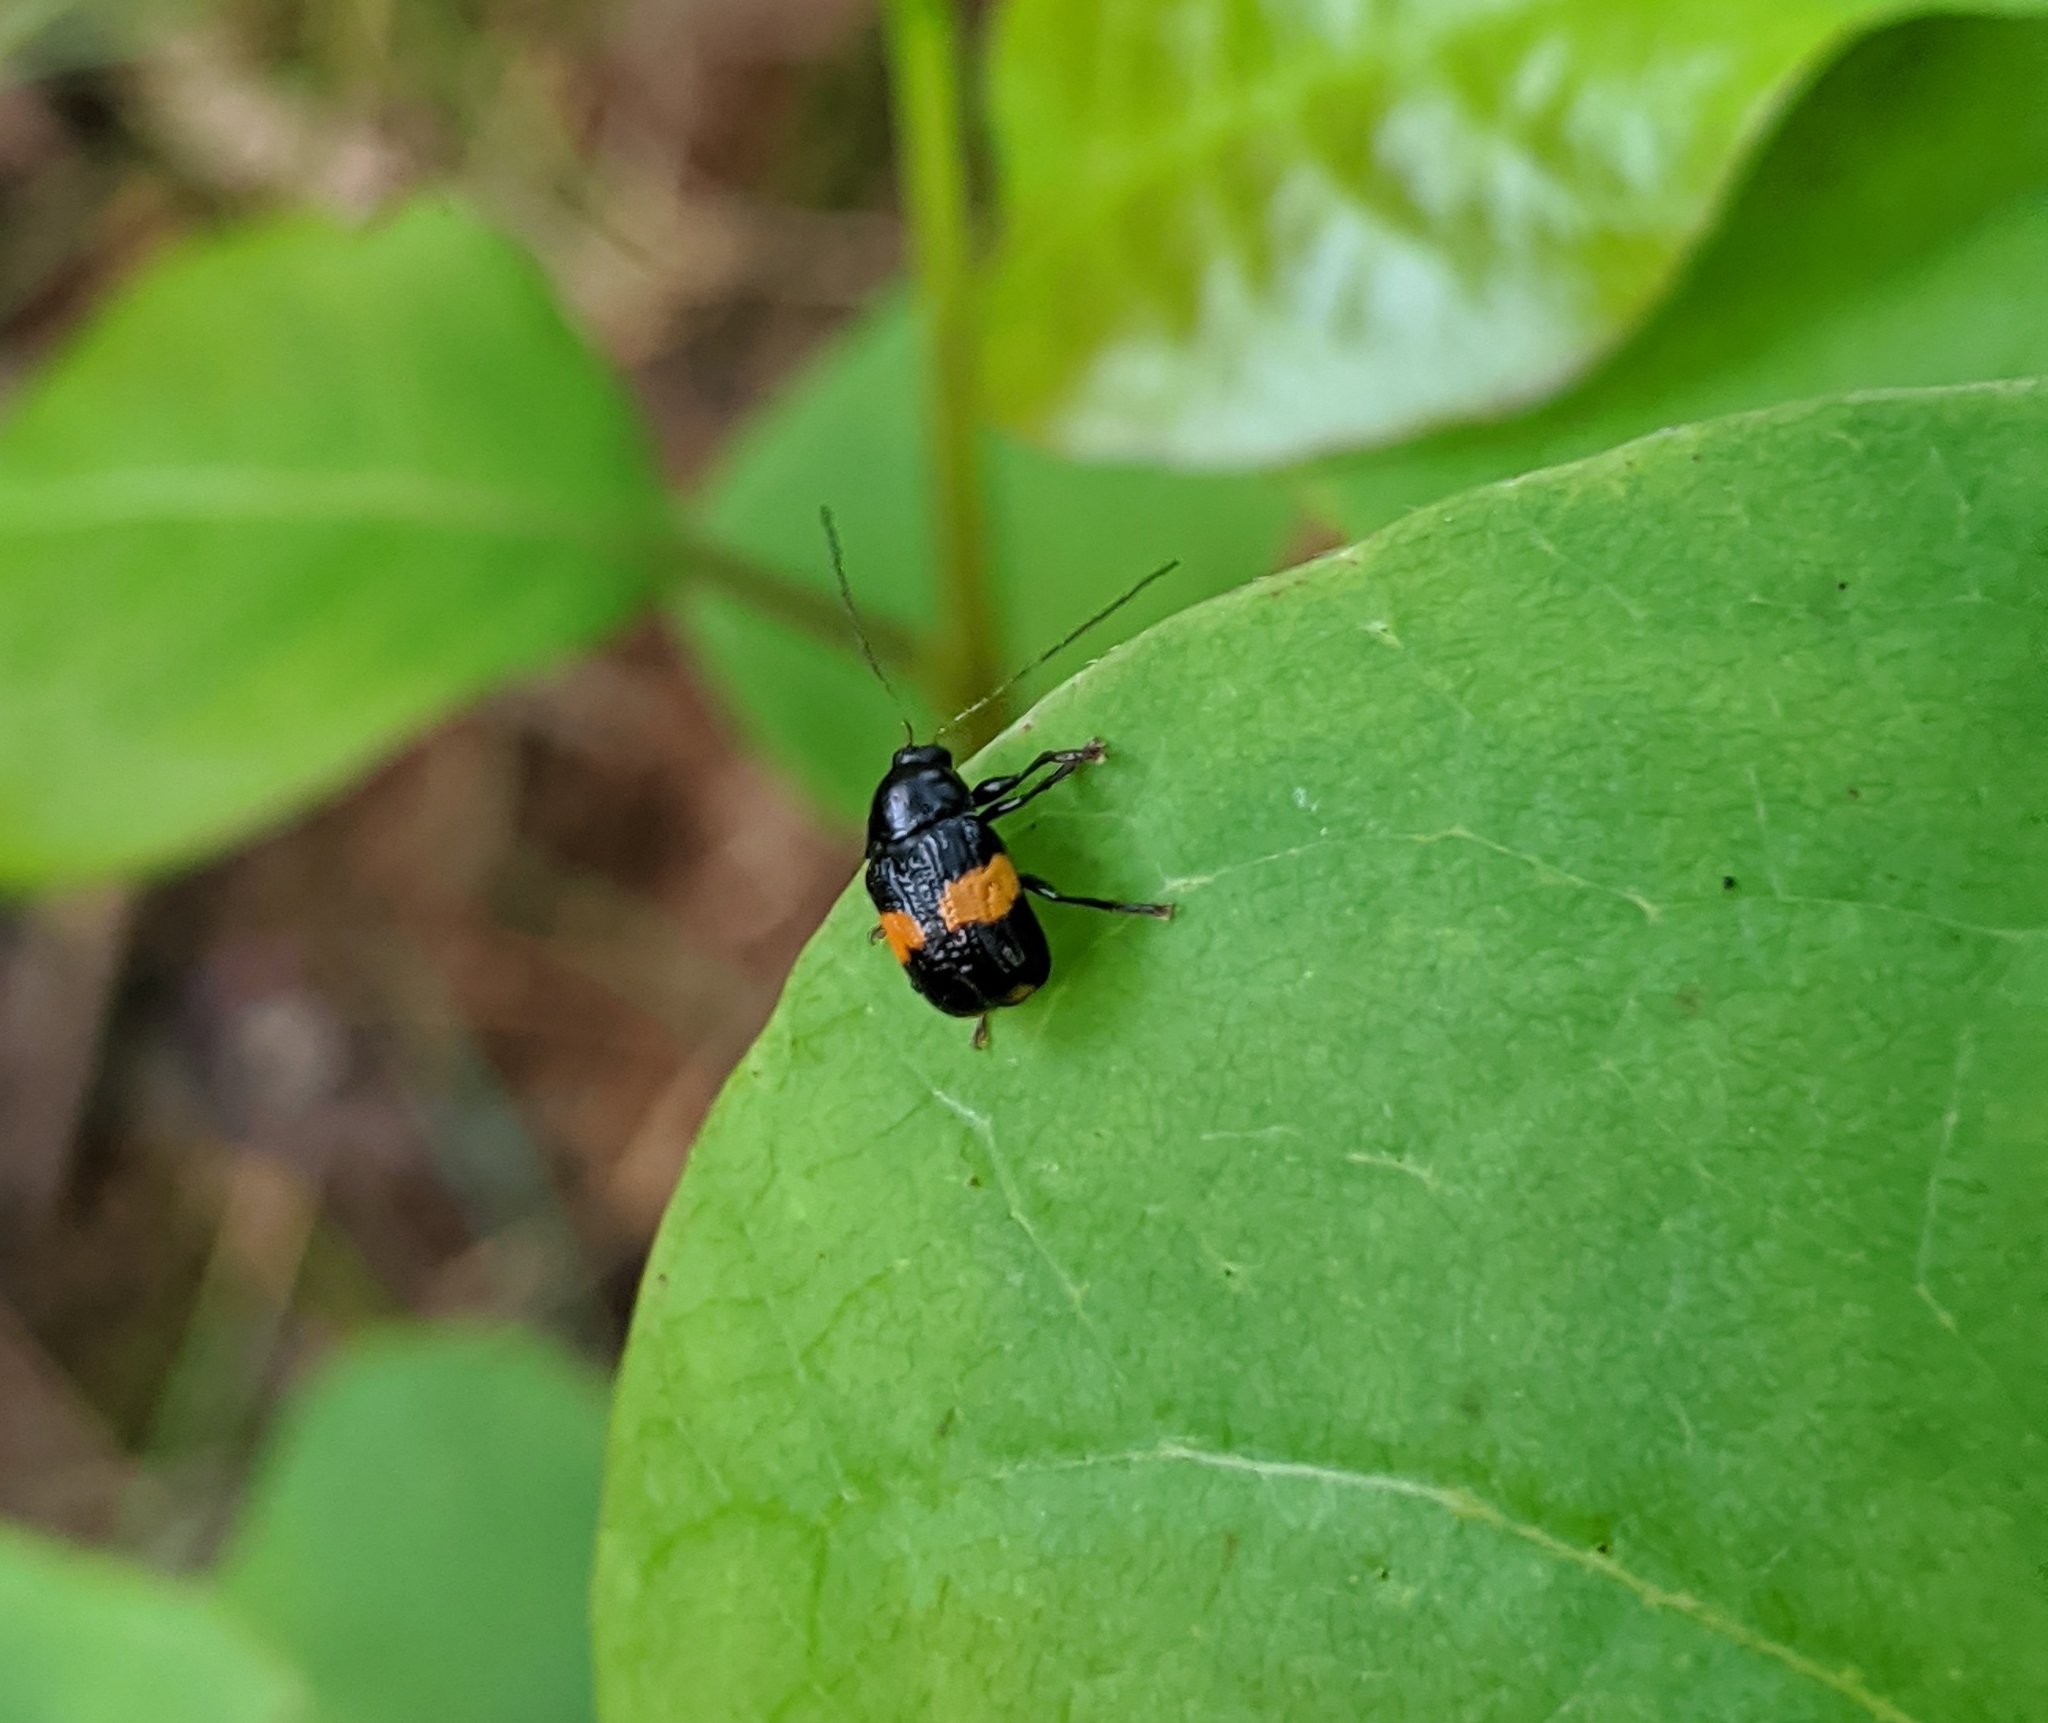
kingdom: Animalia
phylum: Arthropoda
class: Insecta
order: Coleoptera
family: Chrysomelidae
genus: Bassareus
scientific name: Bassareus mammifer
